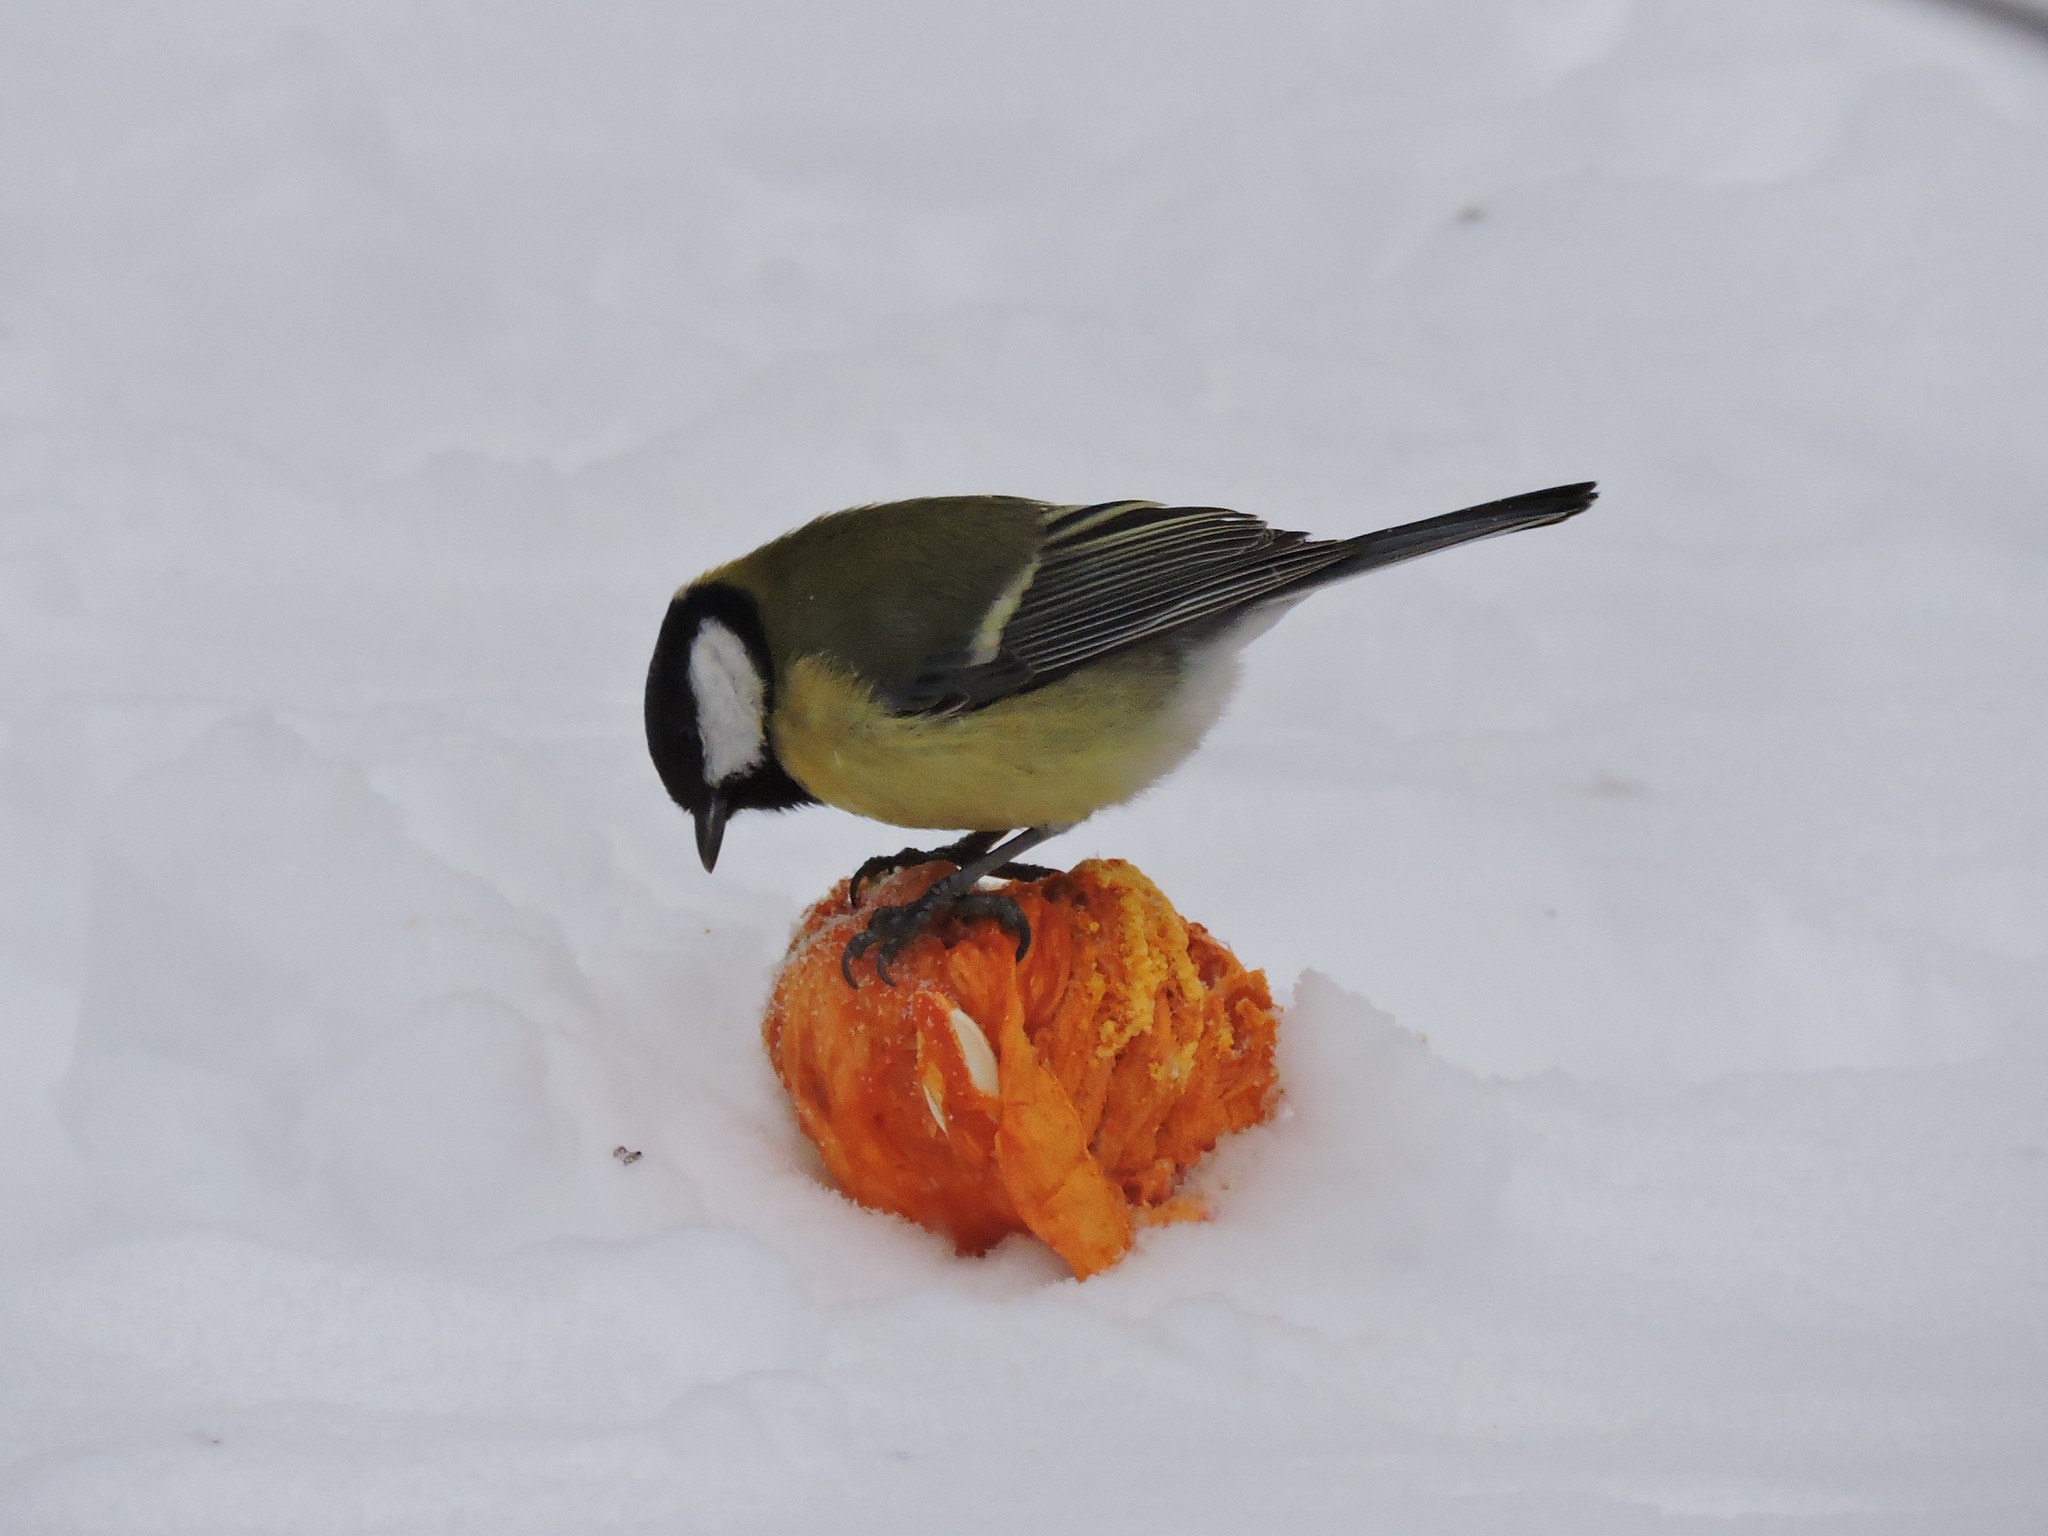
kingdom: Animalia
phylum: Chordata
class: Aves
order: Passeriformes
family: Paridae
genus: Parus
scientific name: Parus major
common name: Great tit
